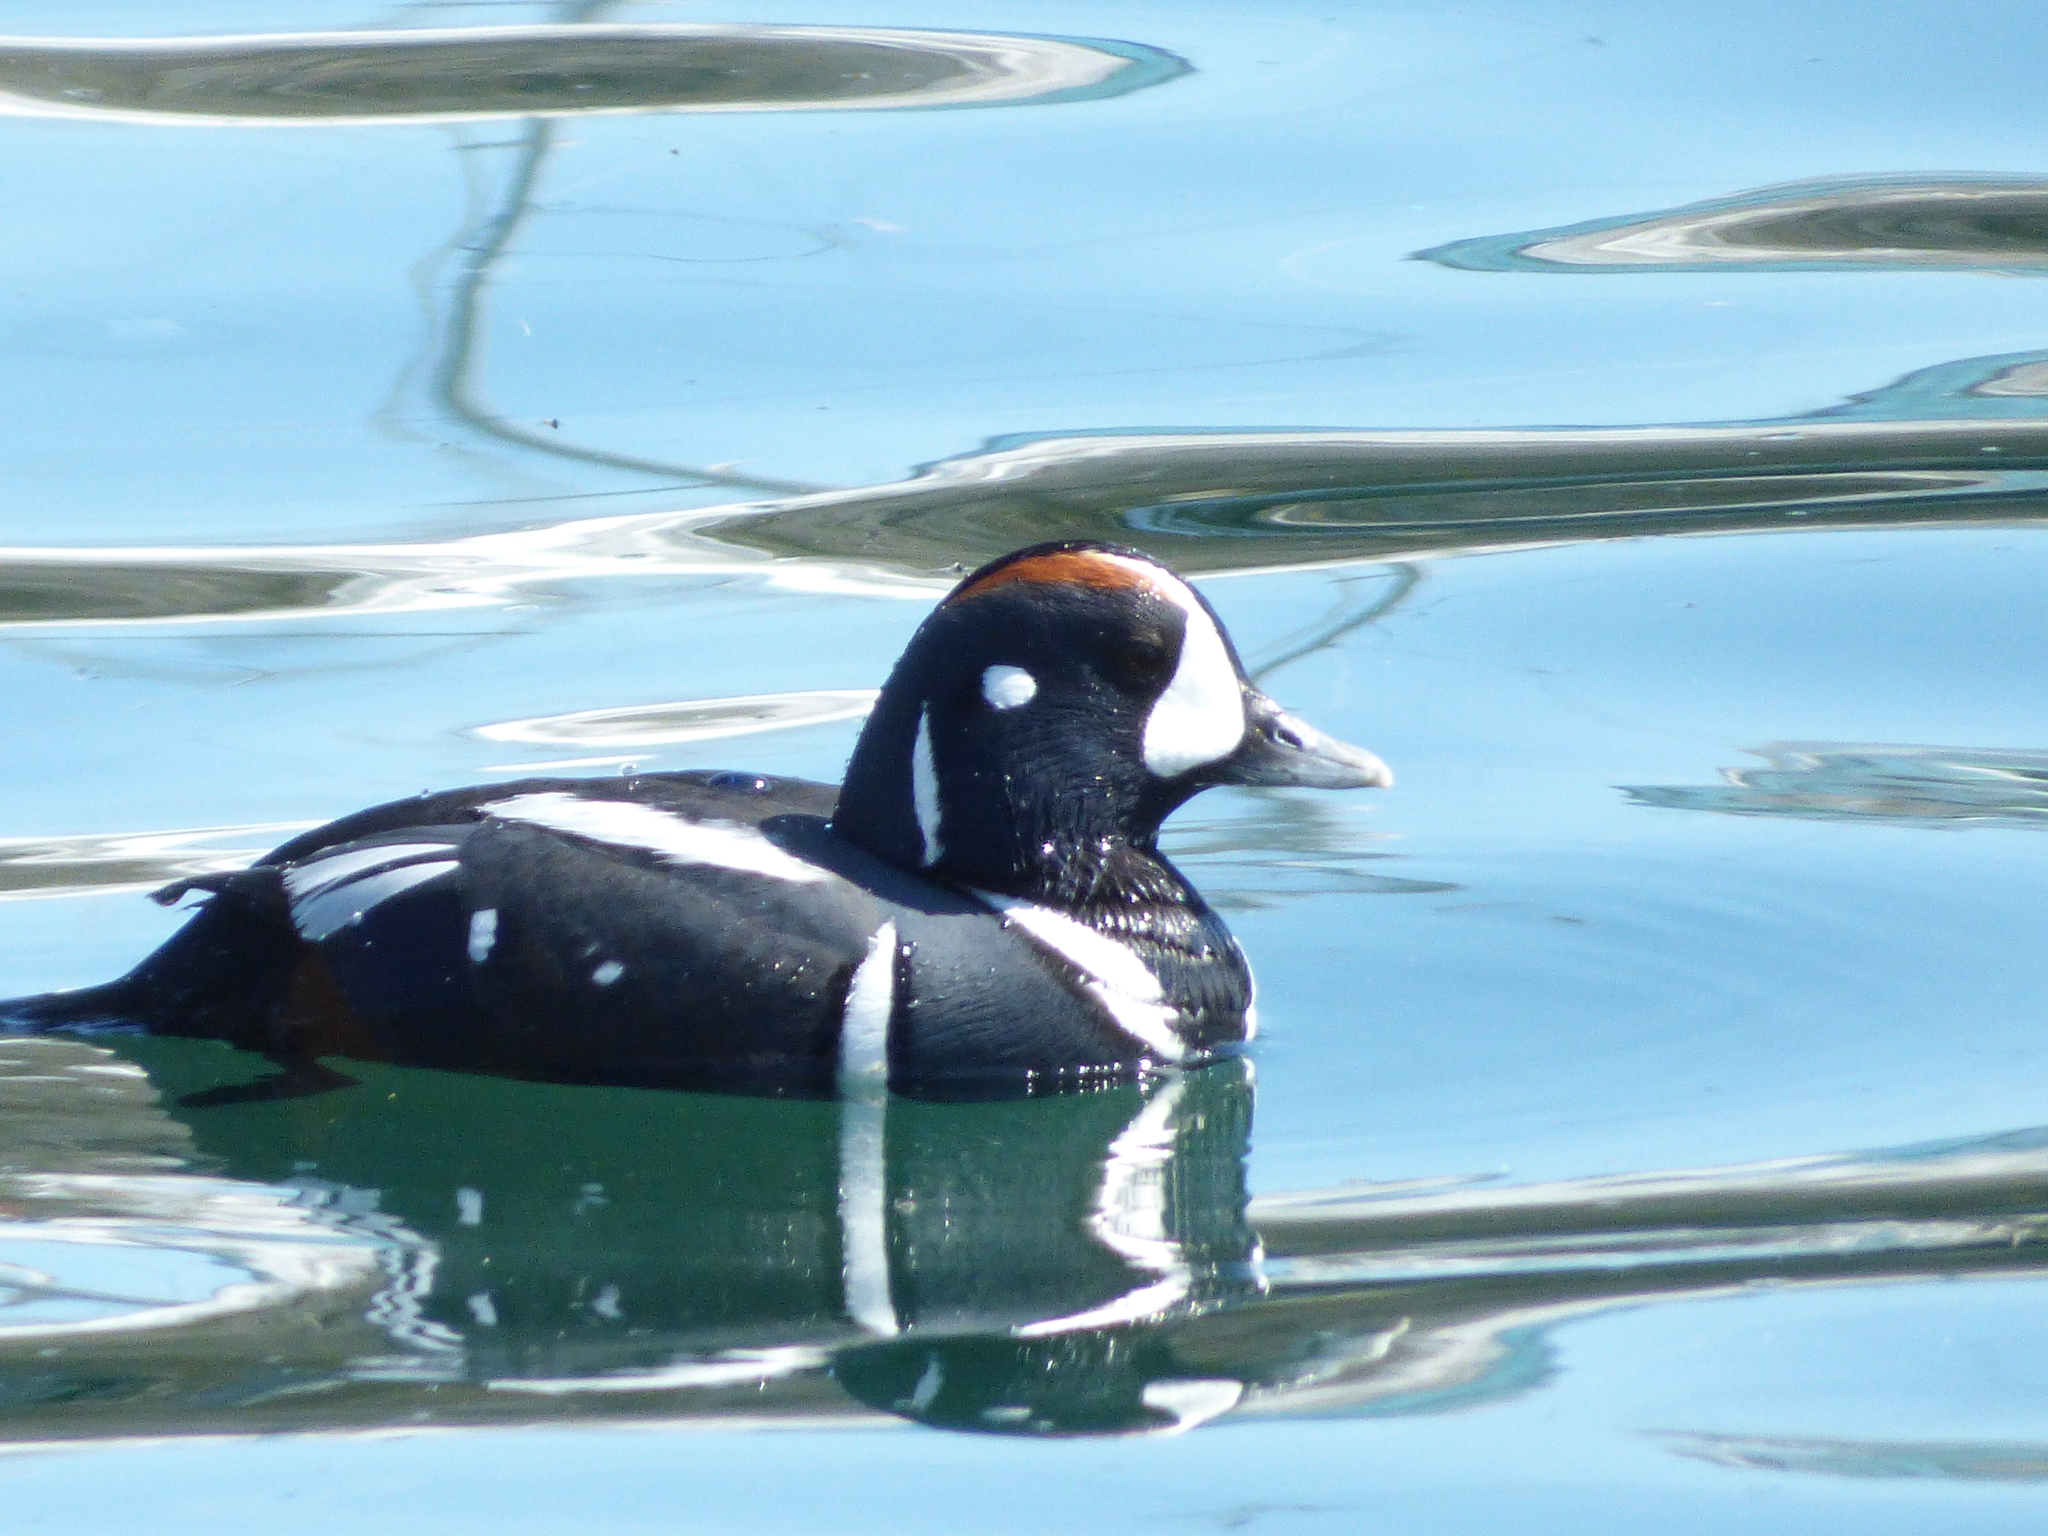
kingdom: Animalia
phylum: Chordata
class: Aves
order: Anseriformes
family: Anatidae
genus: Histrionicus
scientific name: Histrionicus histrionicus
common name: Harlequin duck
